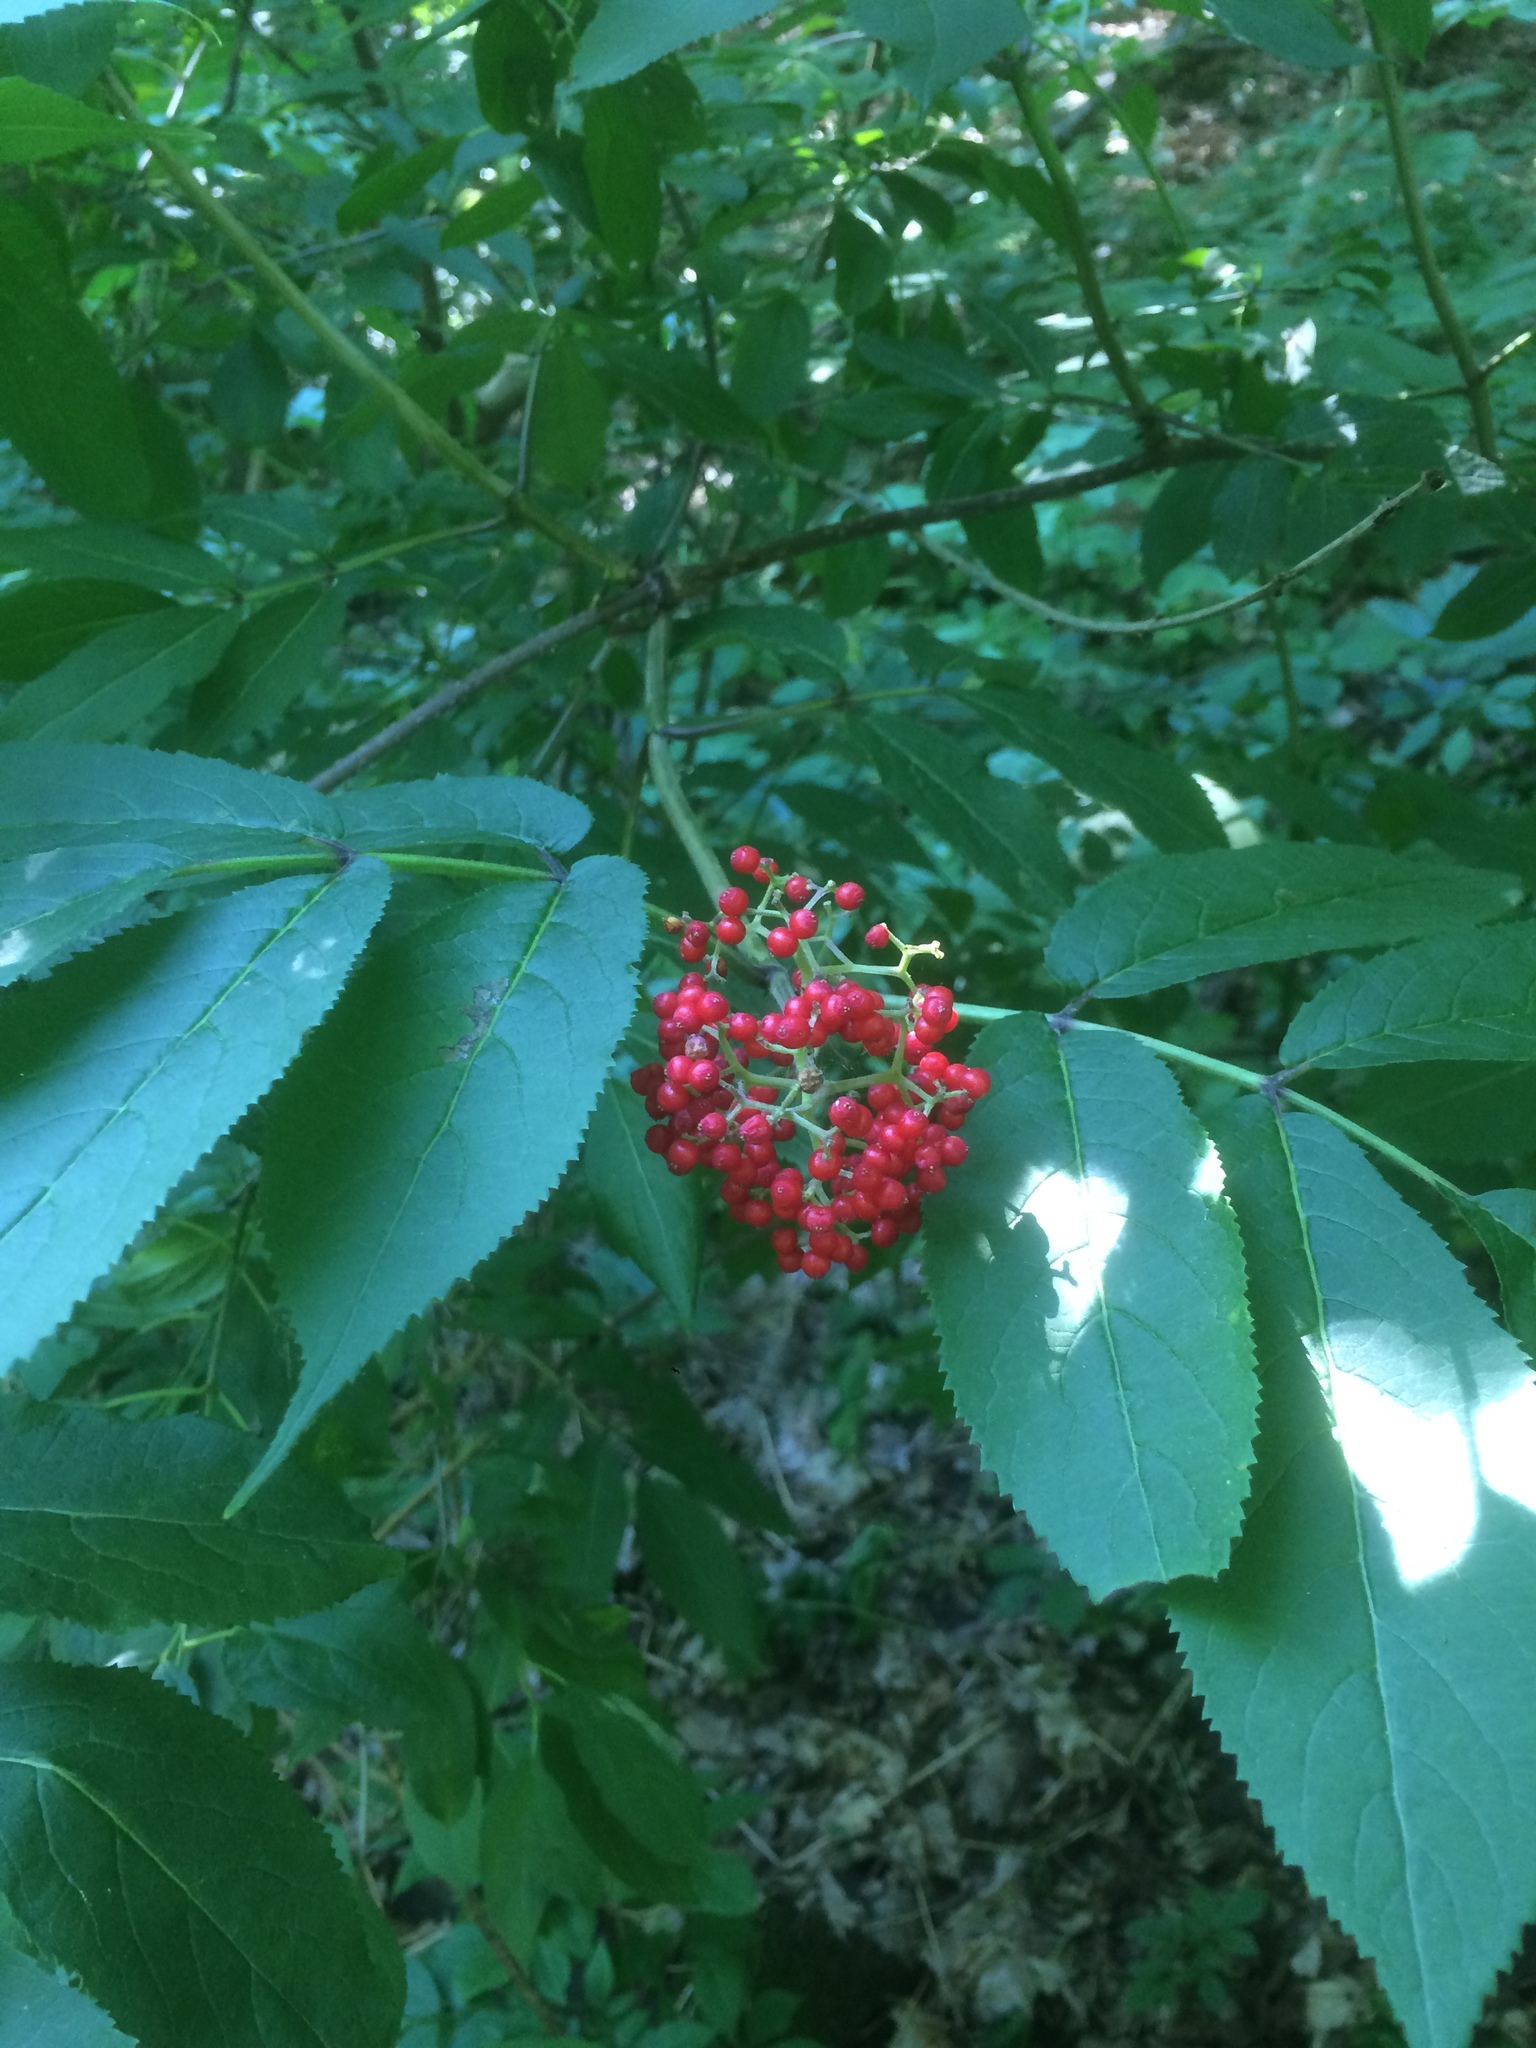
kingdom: Plantae
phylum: Tracheophyta
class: Magnoliopsida
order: Dipsacales
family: Viburnaceae
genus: Sambucus
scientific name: Sambucus racemosa
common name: Red-berried elder
